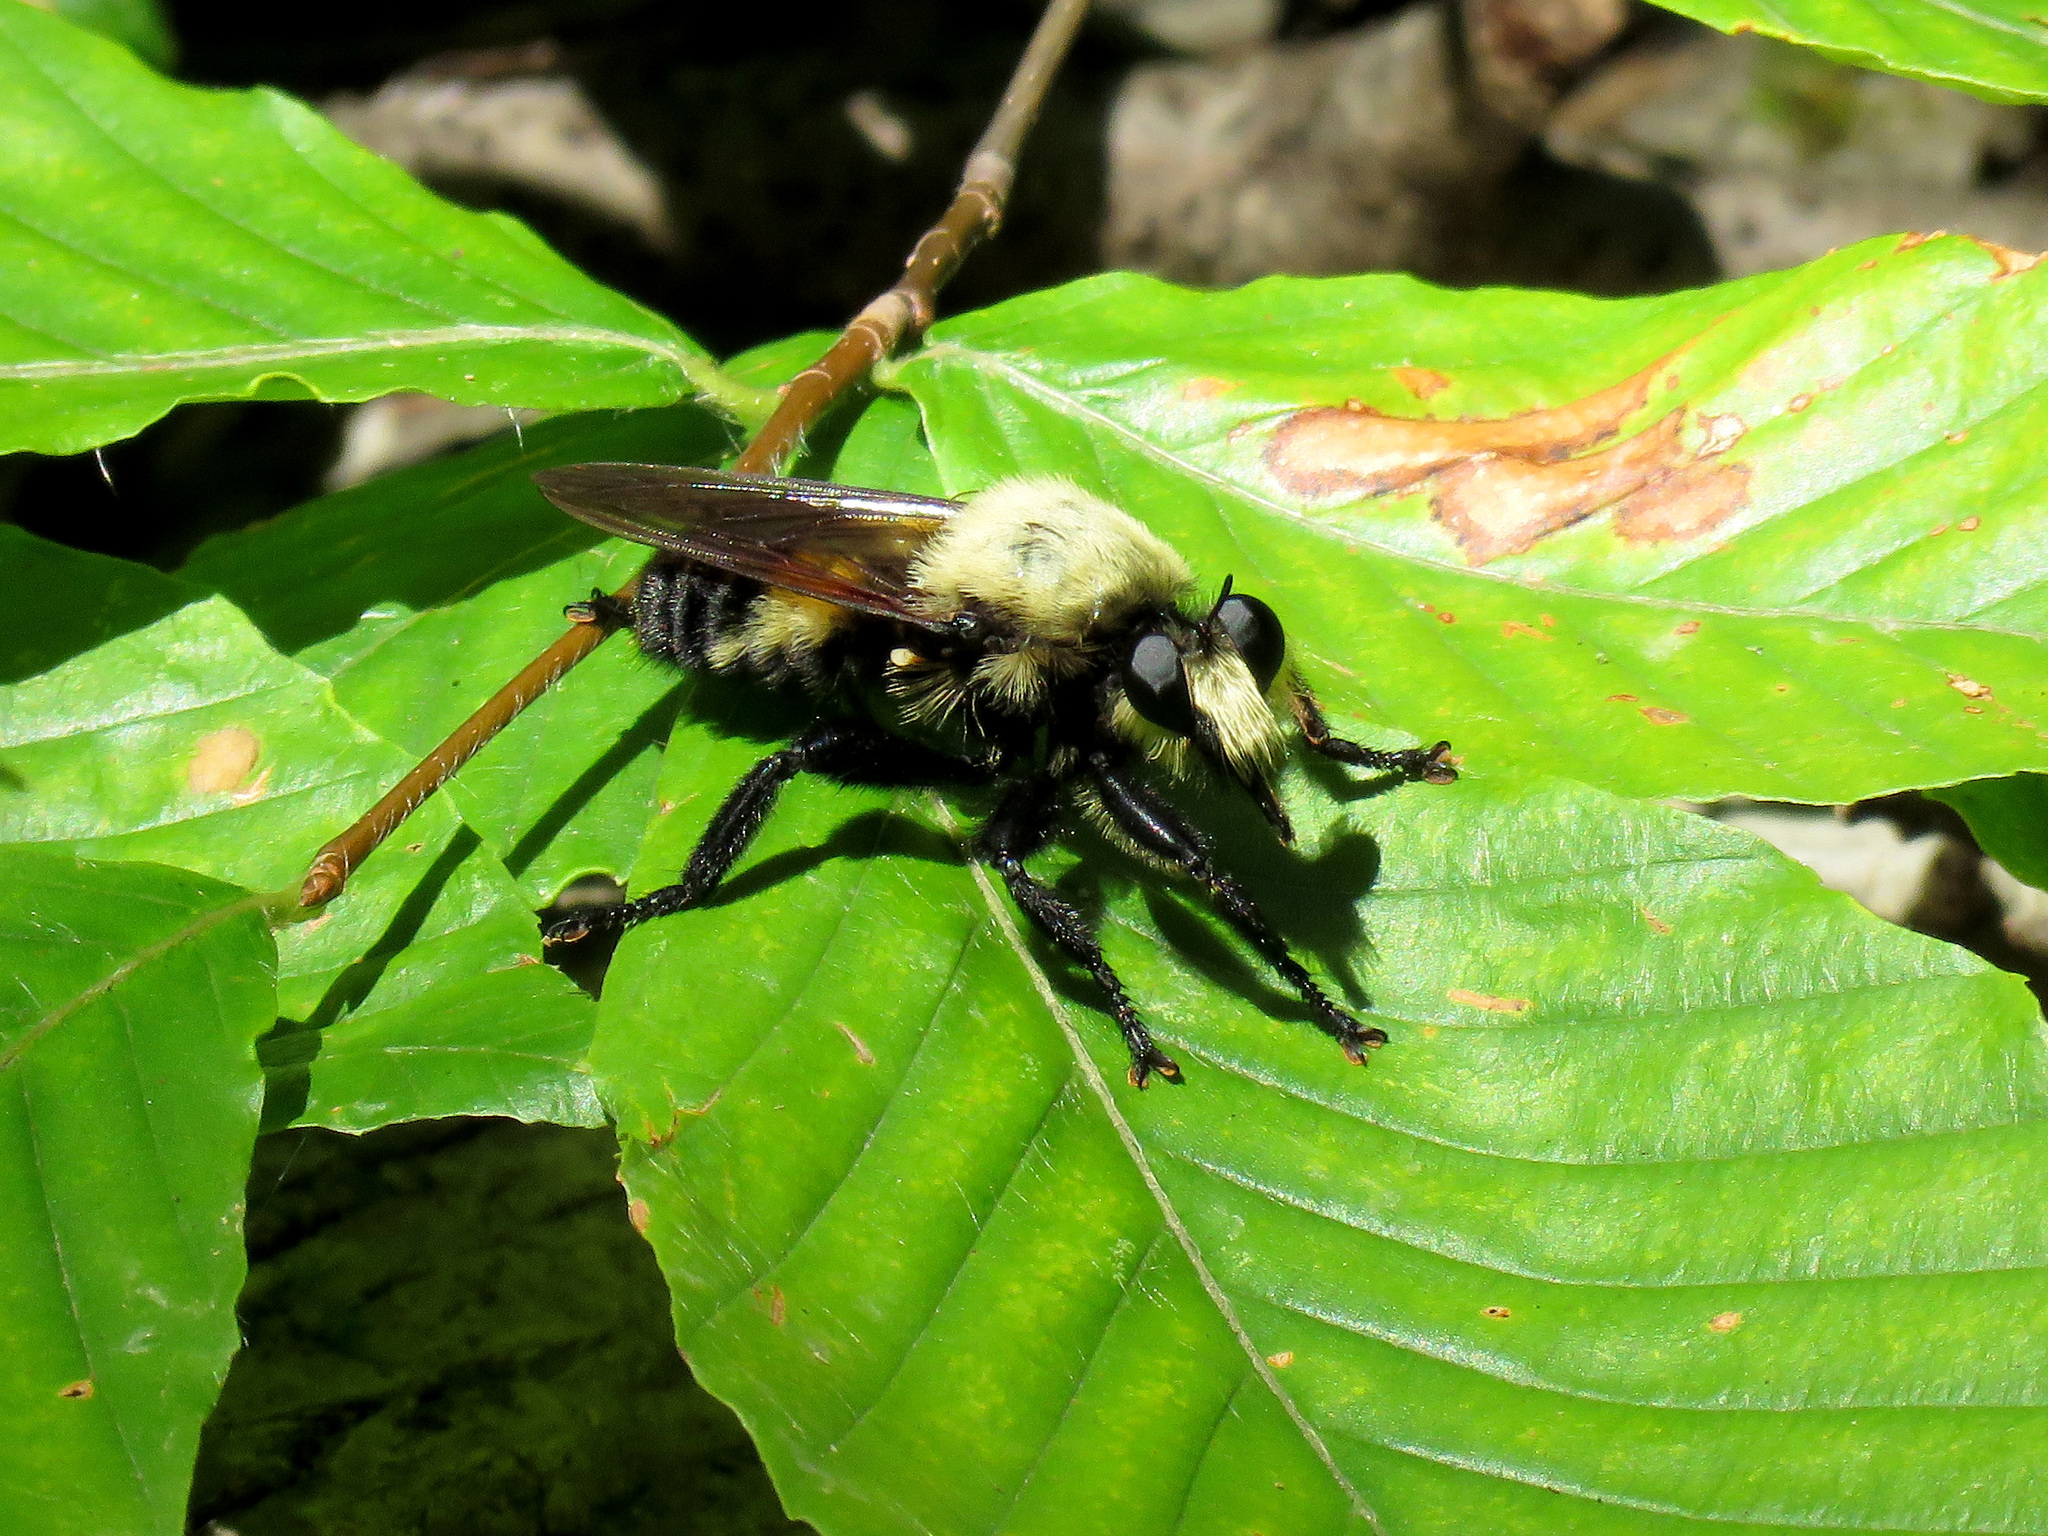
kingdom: Animalia
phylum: Arthropoda
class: Insecta
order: Diptera
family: Asilidae
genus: Laphria
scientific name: Laphria grossa
